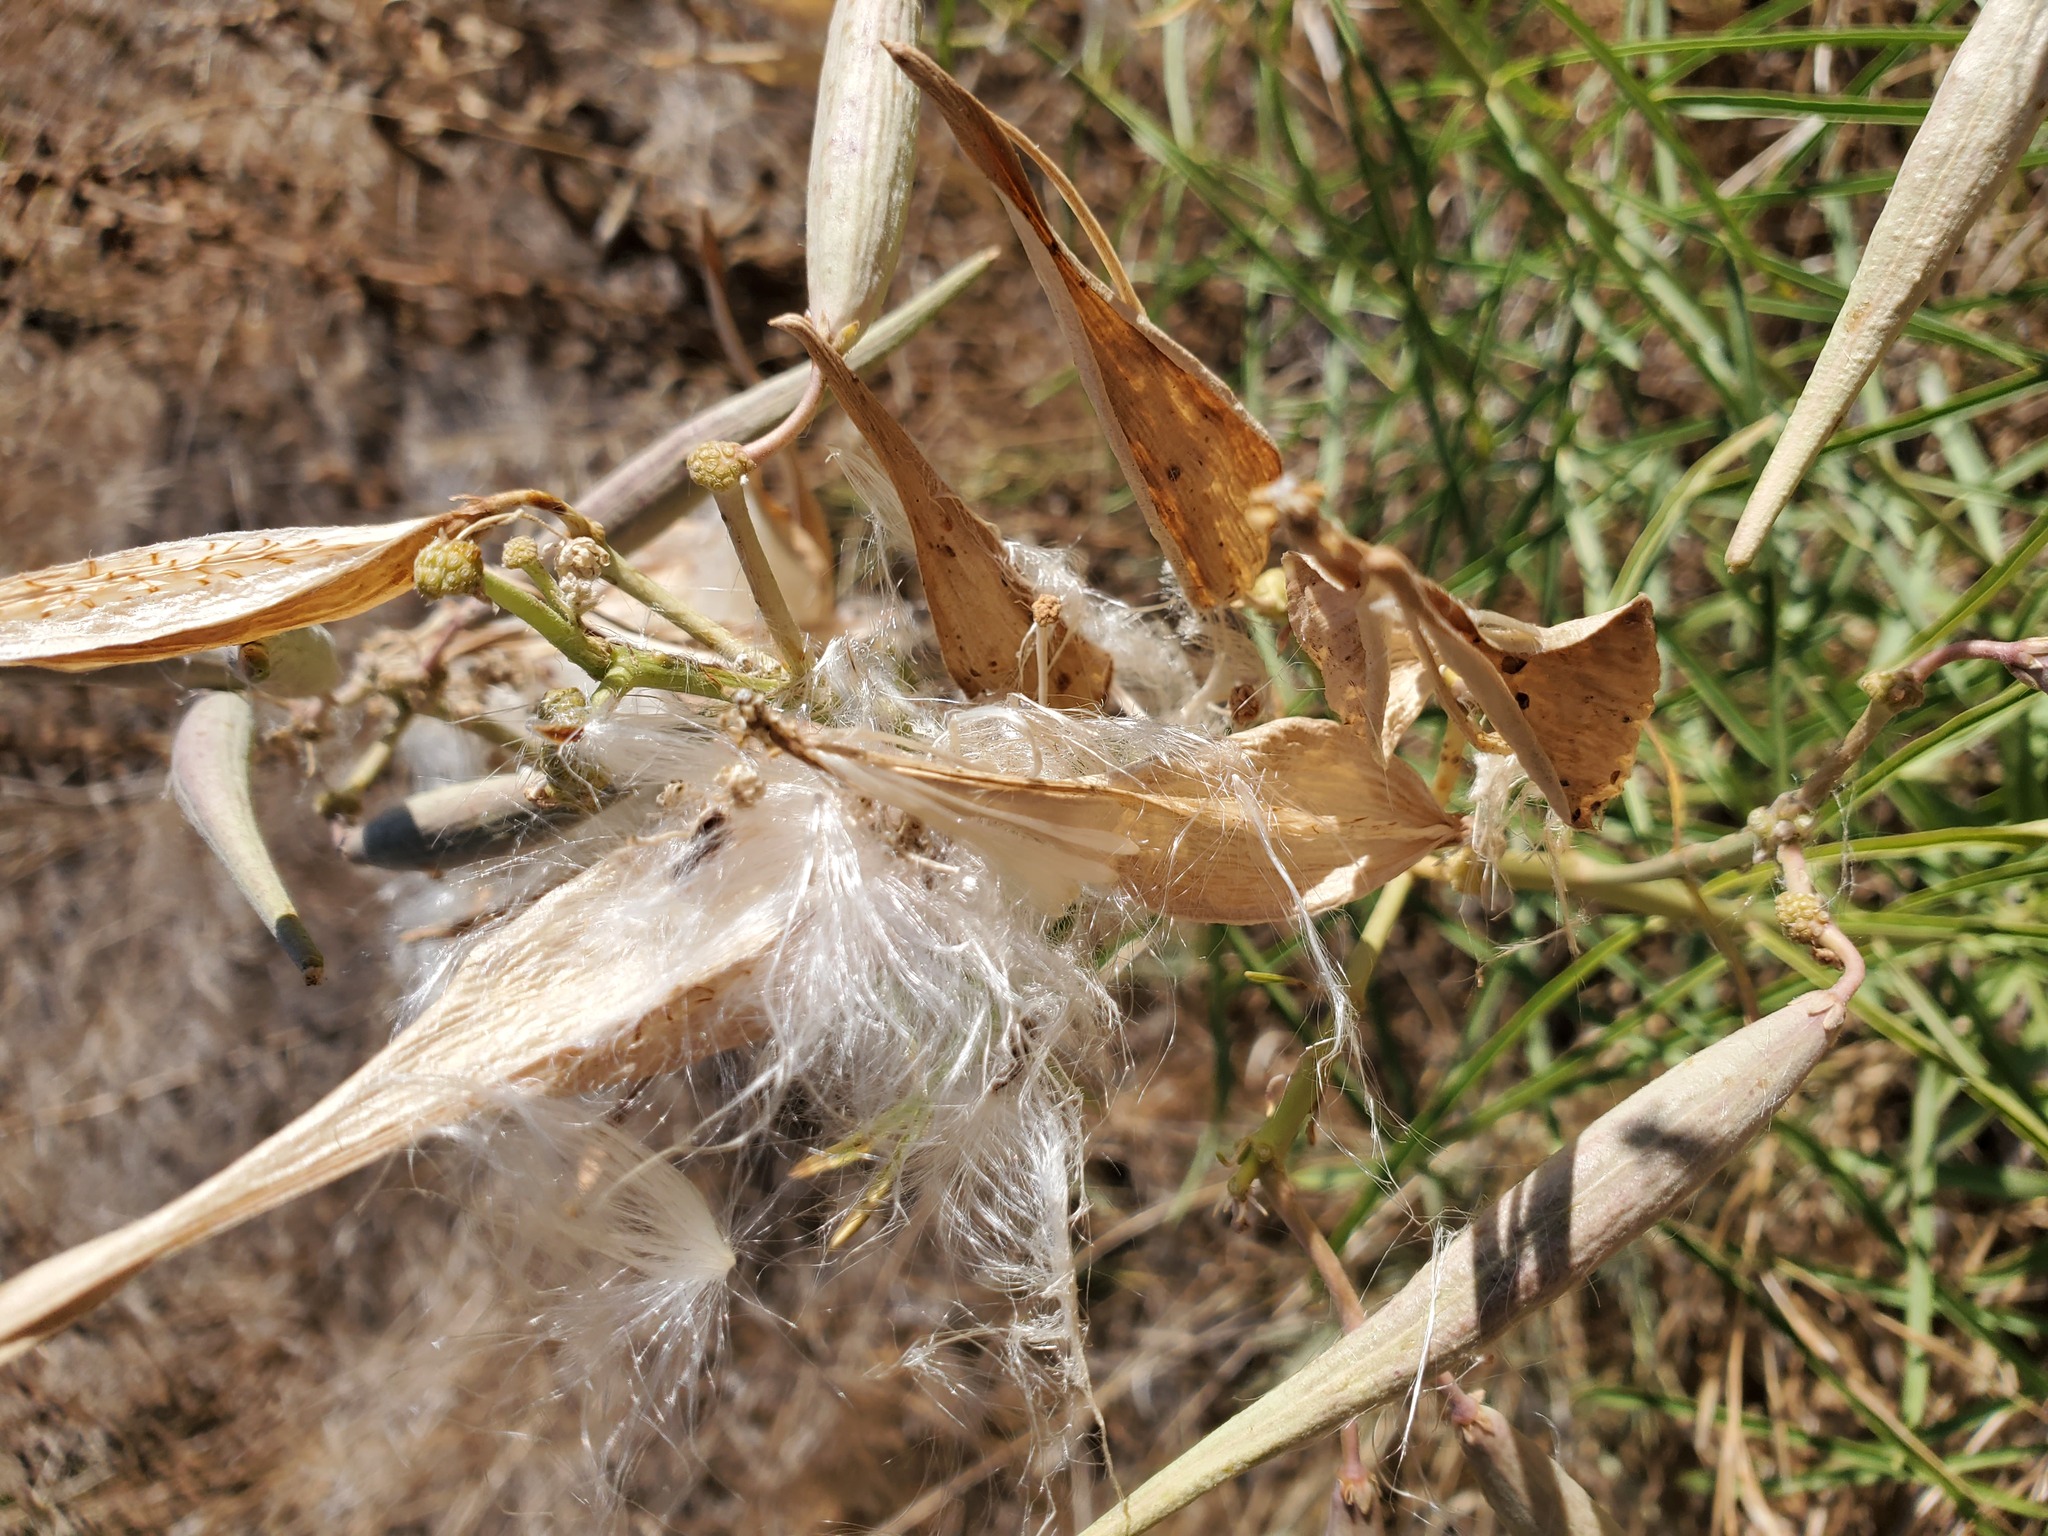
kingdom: Plantae
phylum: Tracheophyta
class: Magnoliopsida
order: Gentianales
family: Apocynaceae
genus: Asclepias
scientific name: Asclepias fascicularis
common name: Mexican milkweed
